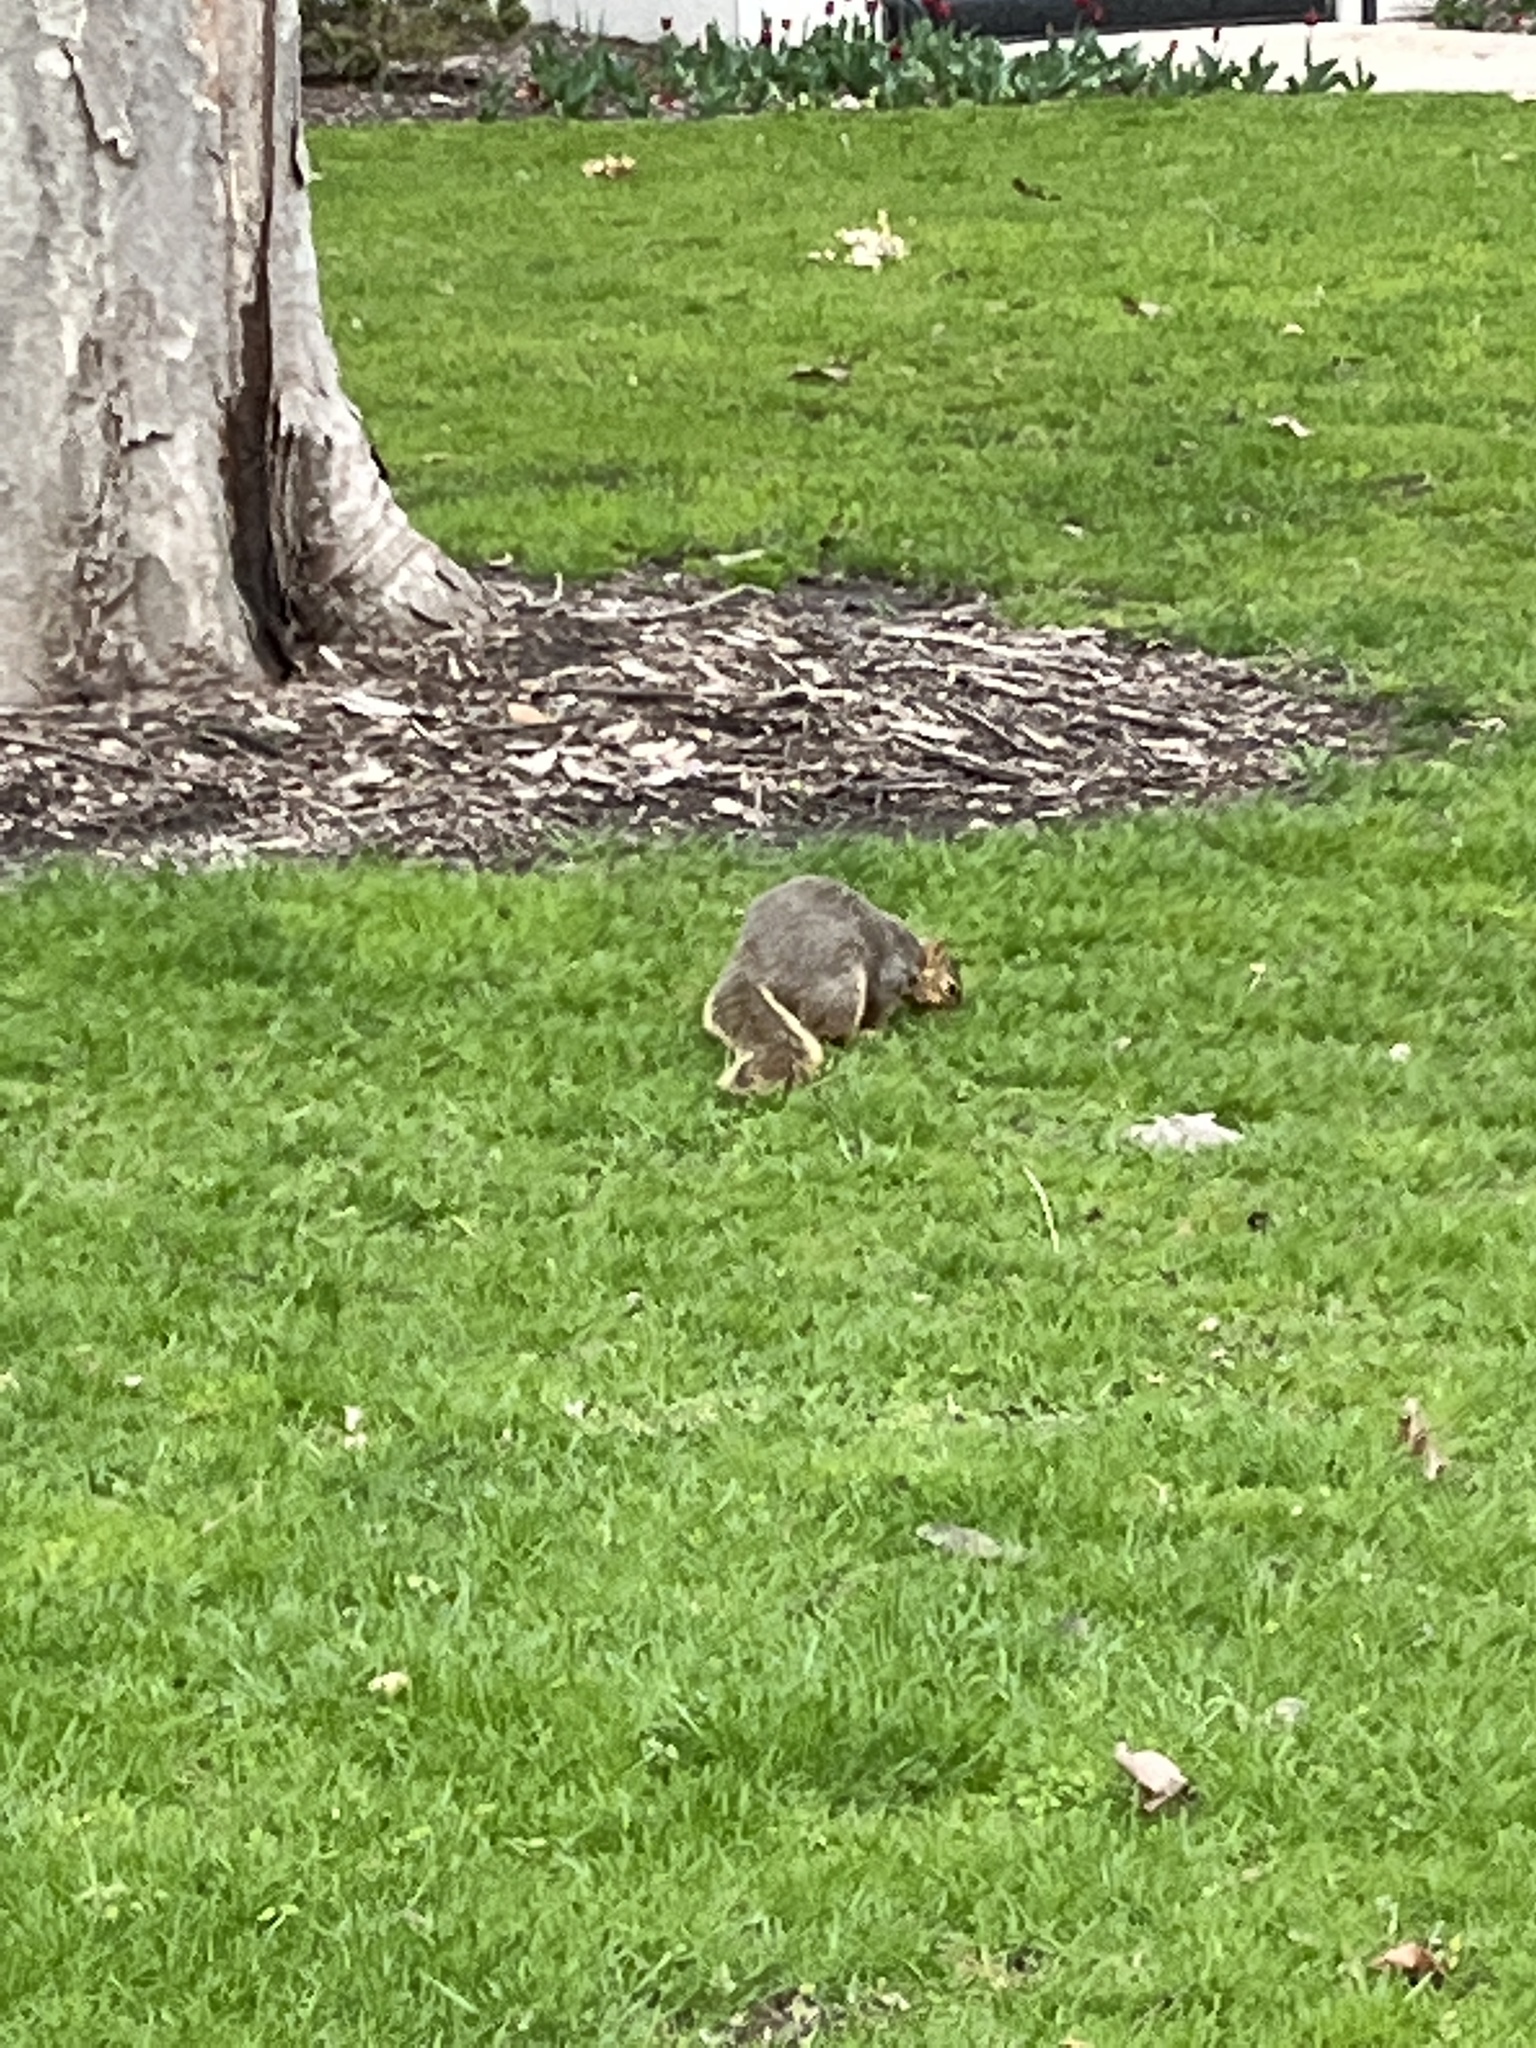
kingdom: Animalia
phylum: Chordata
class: Mammalia
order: Rodentia
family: Sciuridae
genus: Sciurus
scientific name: Sciurus niger
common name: Fox squirrel
